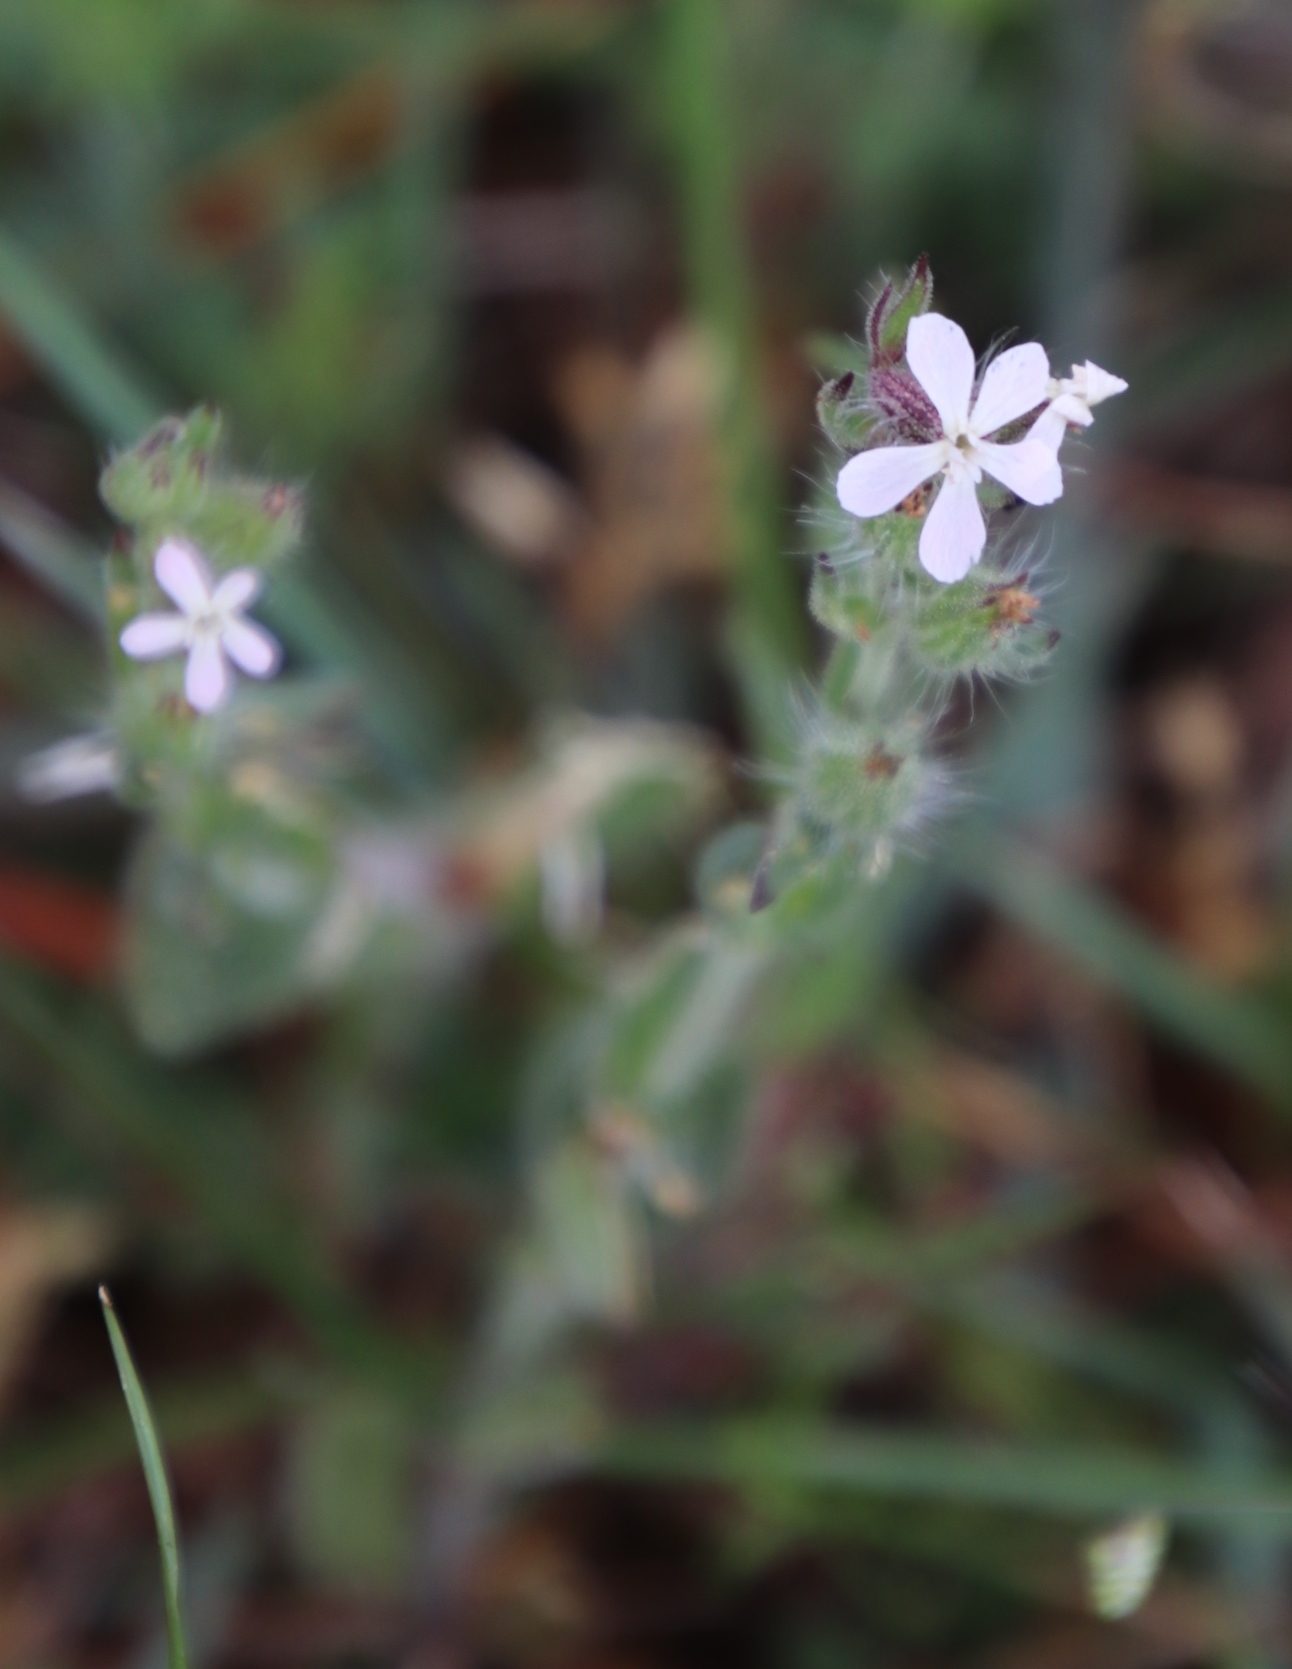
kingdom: Plantae
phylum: Tracheophyta
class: Magnoliopsida
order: Caryophyllales
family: Caryophyllaceae
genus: Silene
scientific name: Silene gallica
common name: Small-flowered catchfly
